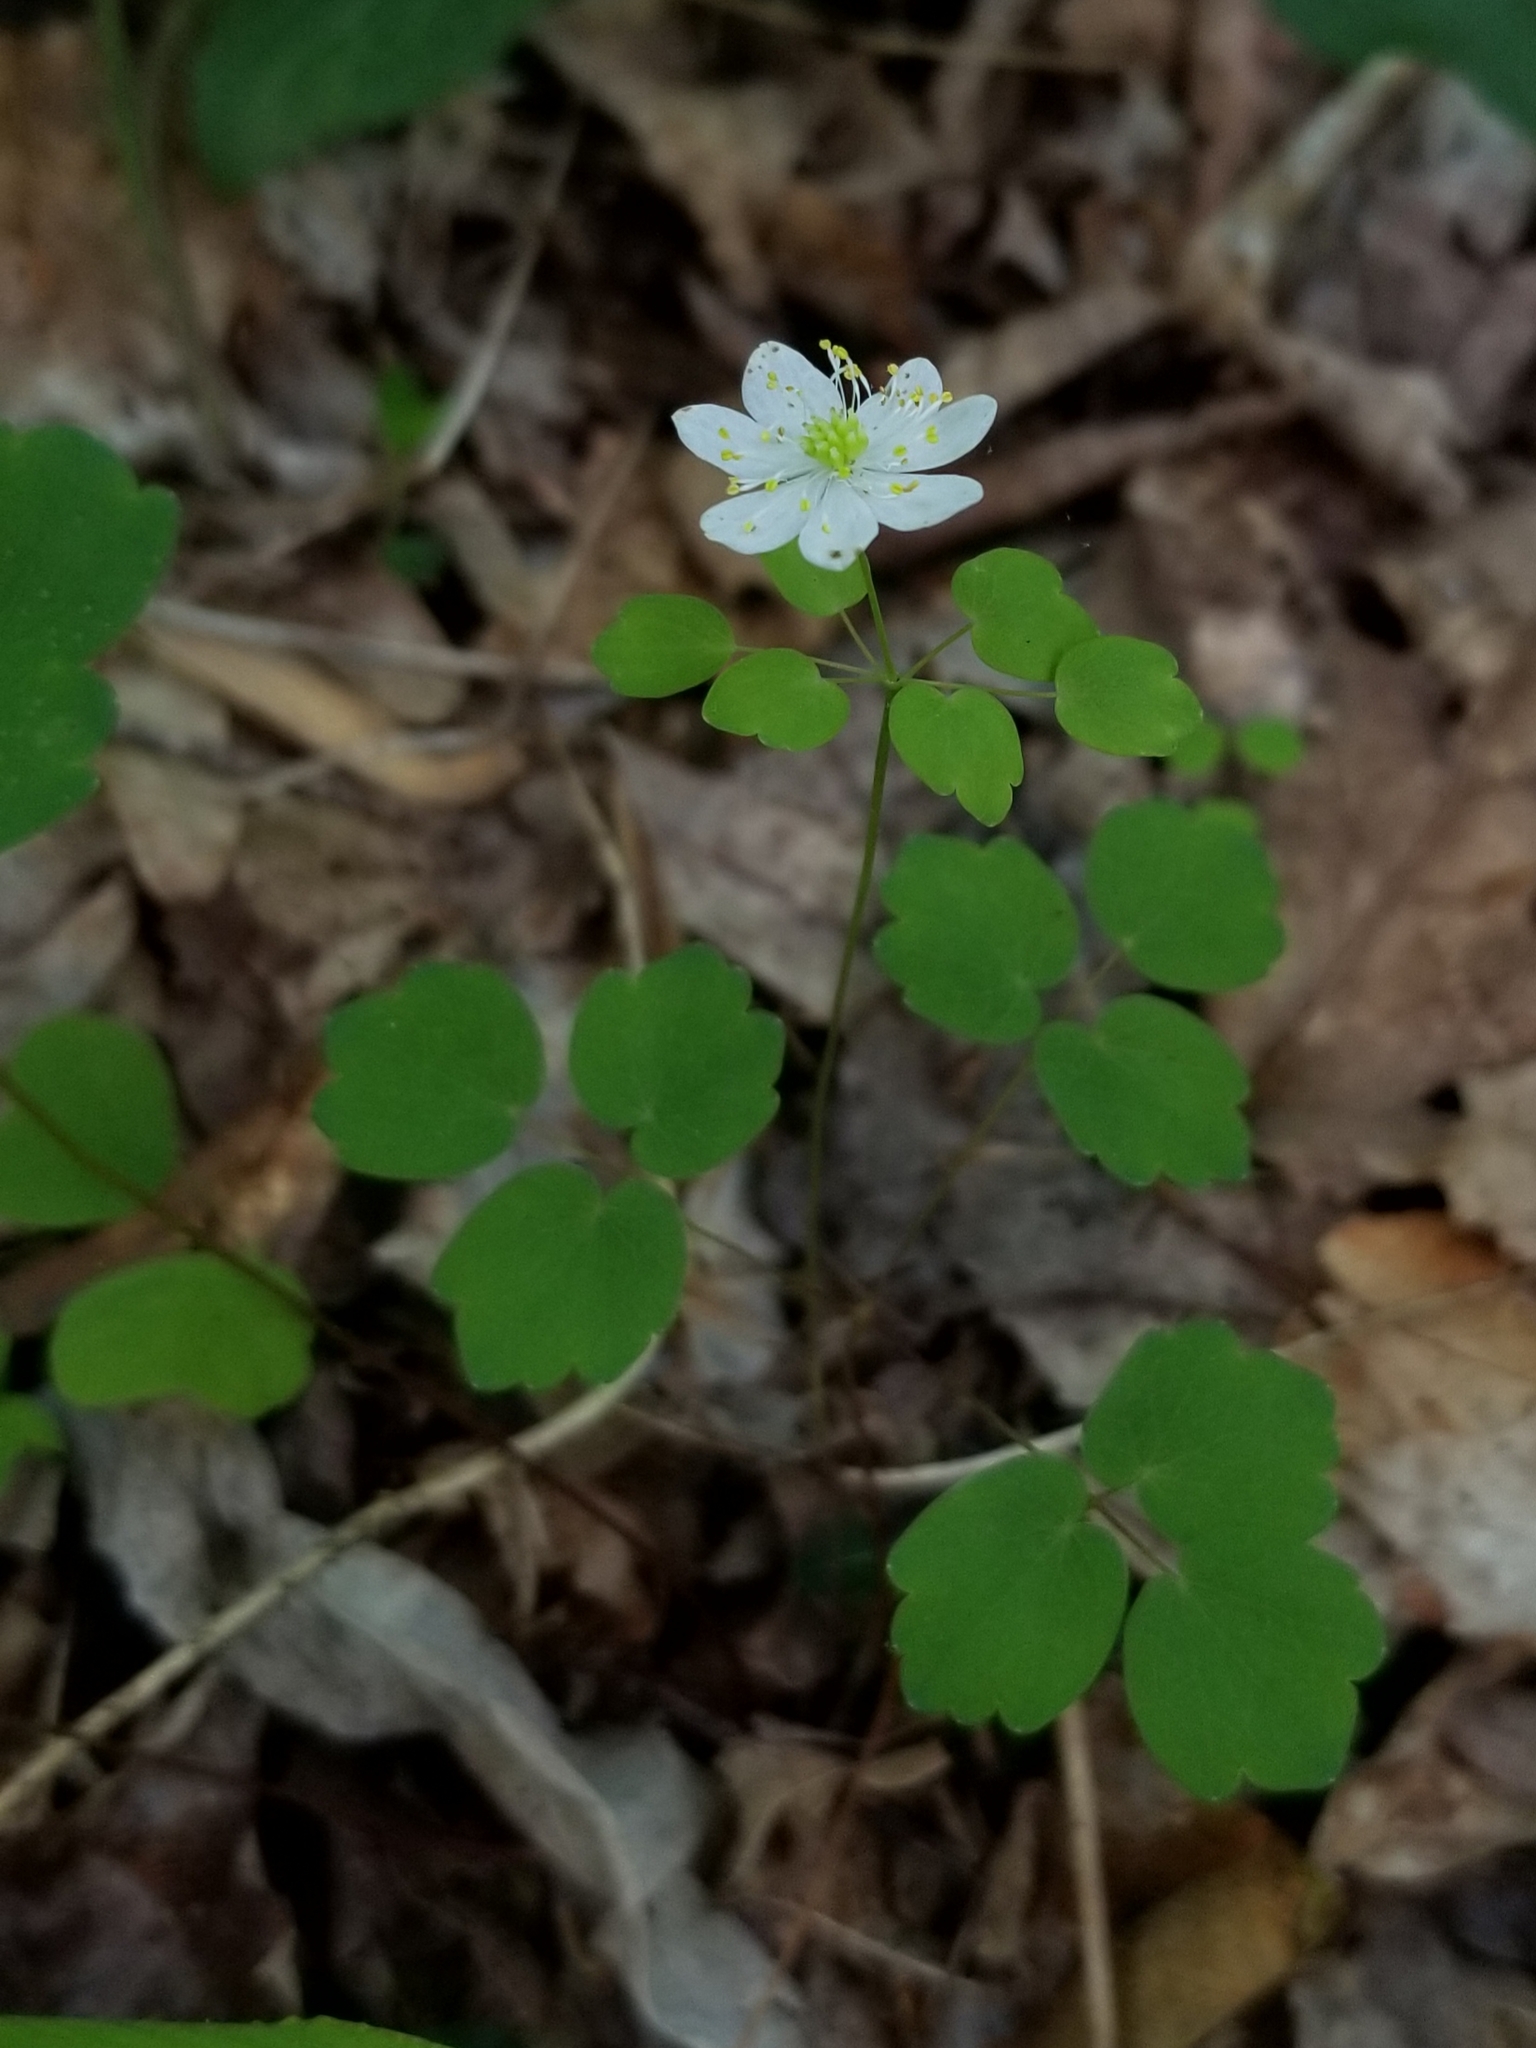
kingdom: Plantae
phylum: Tracheophyta
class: Magnoliopsida
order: Ranunculales
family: Ranunculaceae
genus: Thalictrum
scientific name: Thalictrum thalictroides
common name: Rue-anemone
